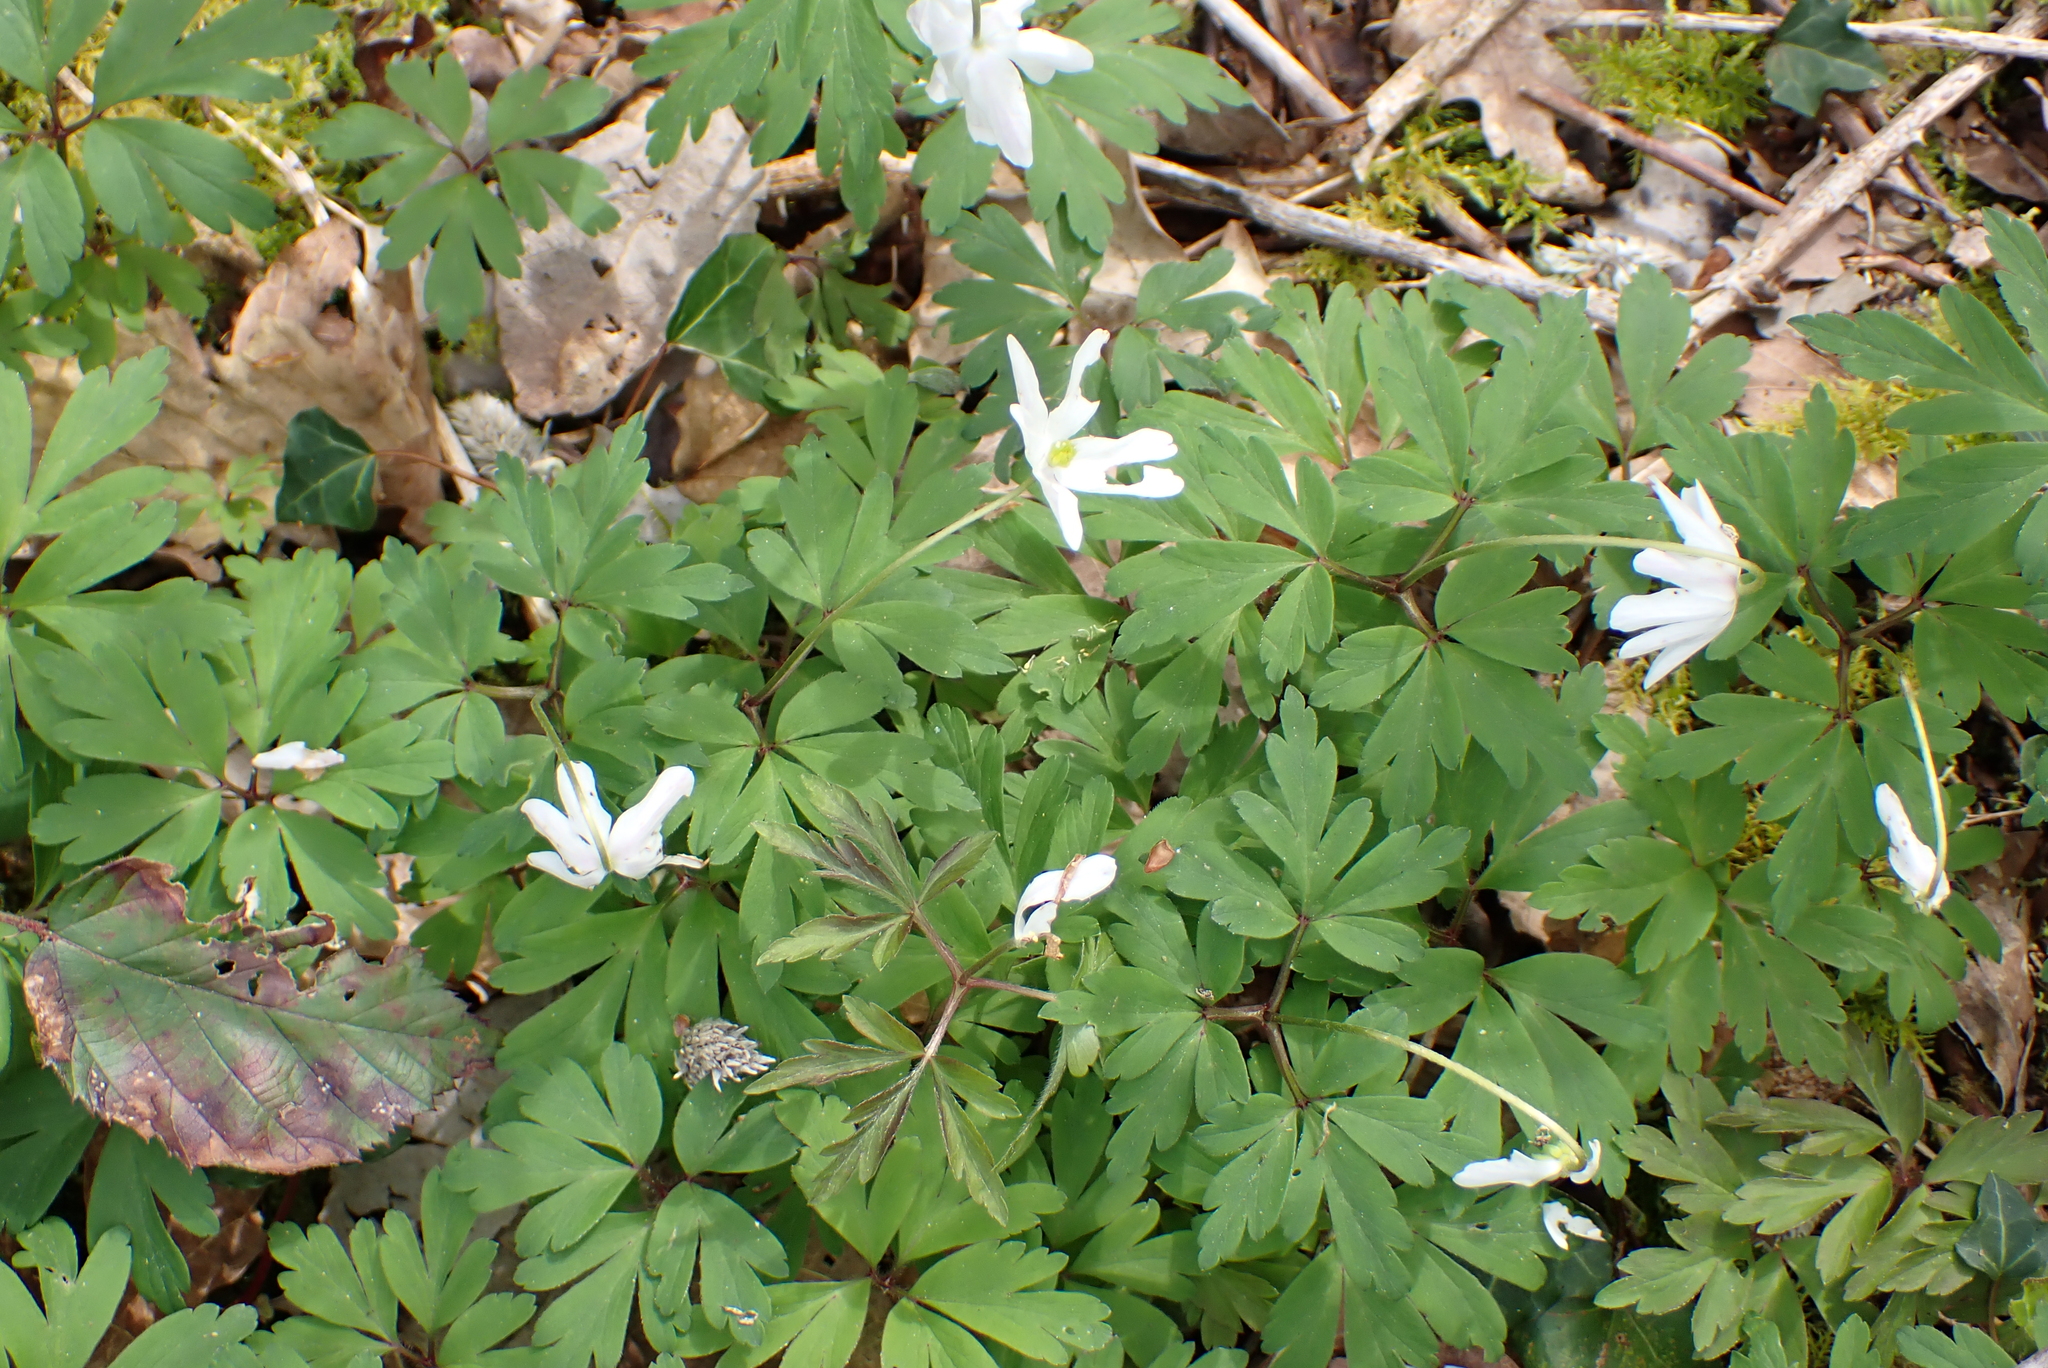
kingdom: Plantae
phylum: Tracheophyta
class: Magnoliopsida
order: Ranunculales
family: Ranunculaceae
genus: Anemone
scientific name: Anemone nemorosa
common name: Wood anemone
